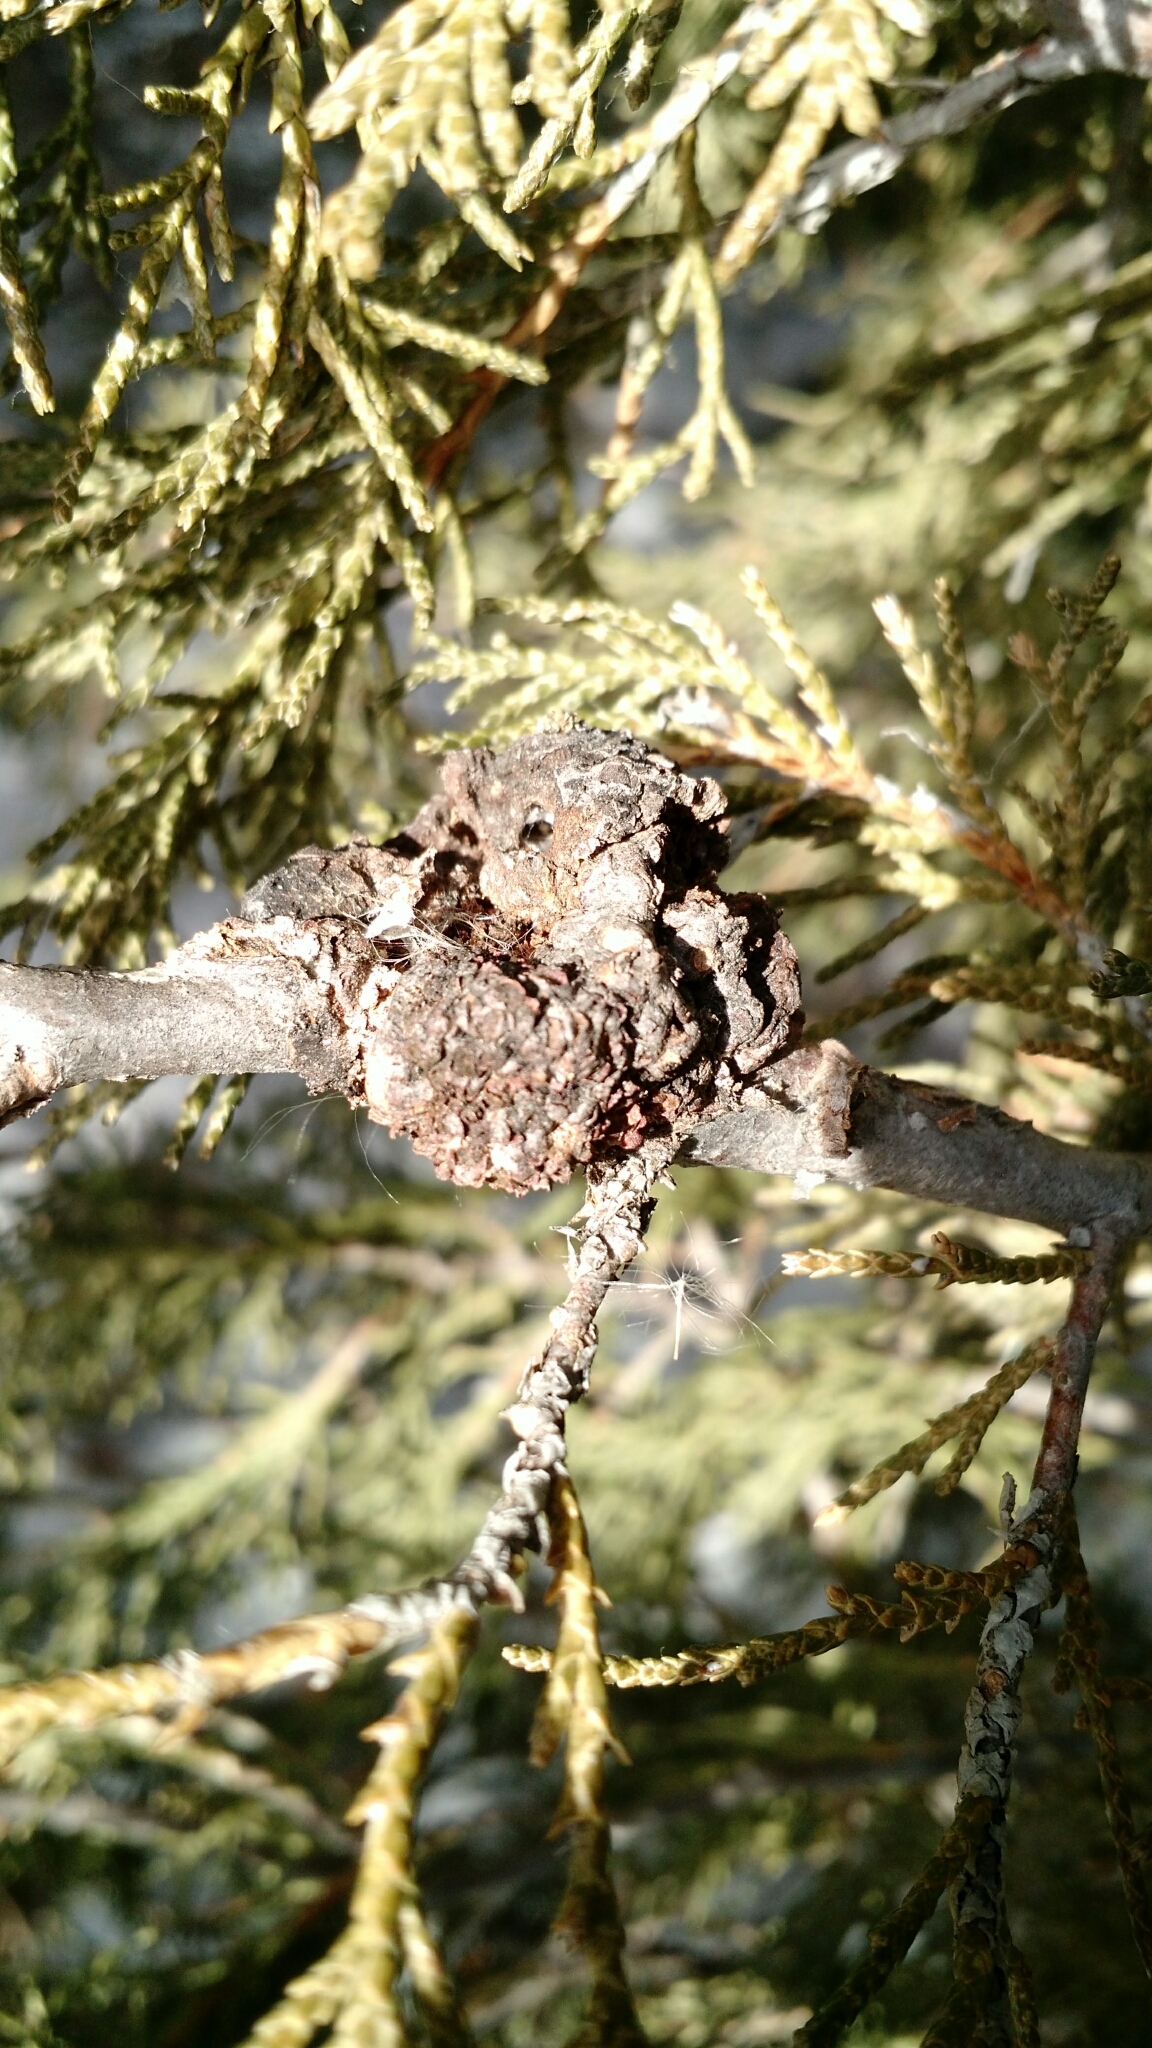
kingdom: Fungi
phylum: Basidiomycota
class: Pucciniomycetes
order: Pucciniales
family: Gymnosporangiaceae
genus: Gymnosporangium
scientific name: Gymnosporangium juniperi-virginianae
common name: Juniper-apple rust
